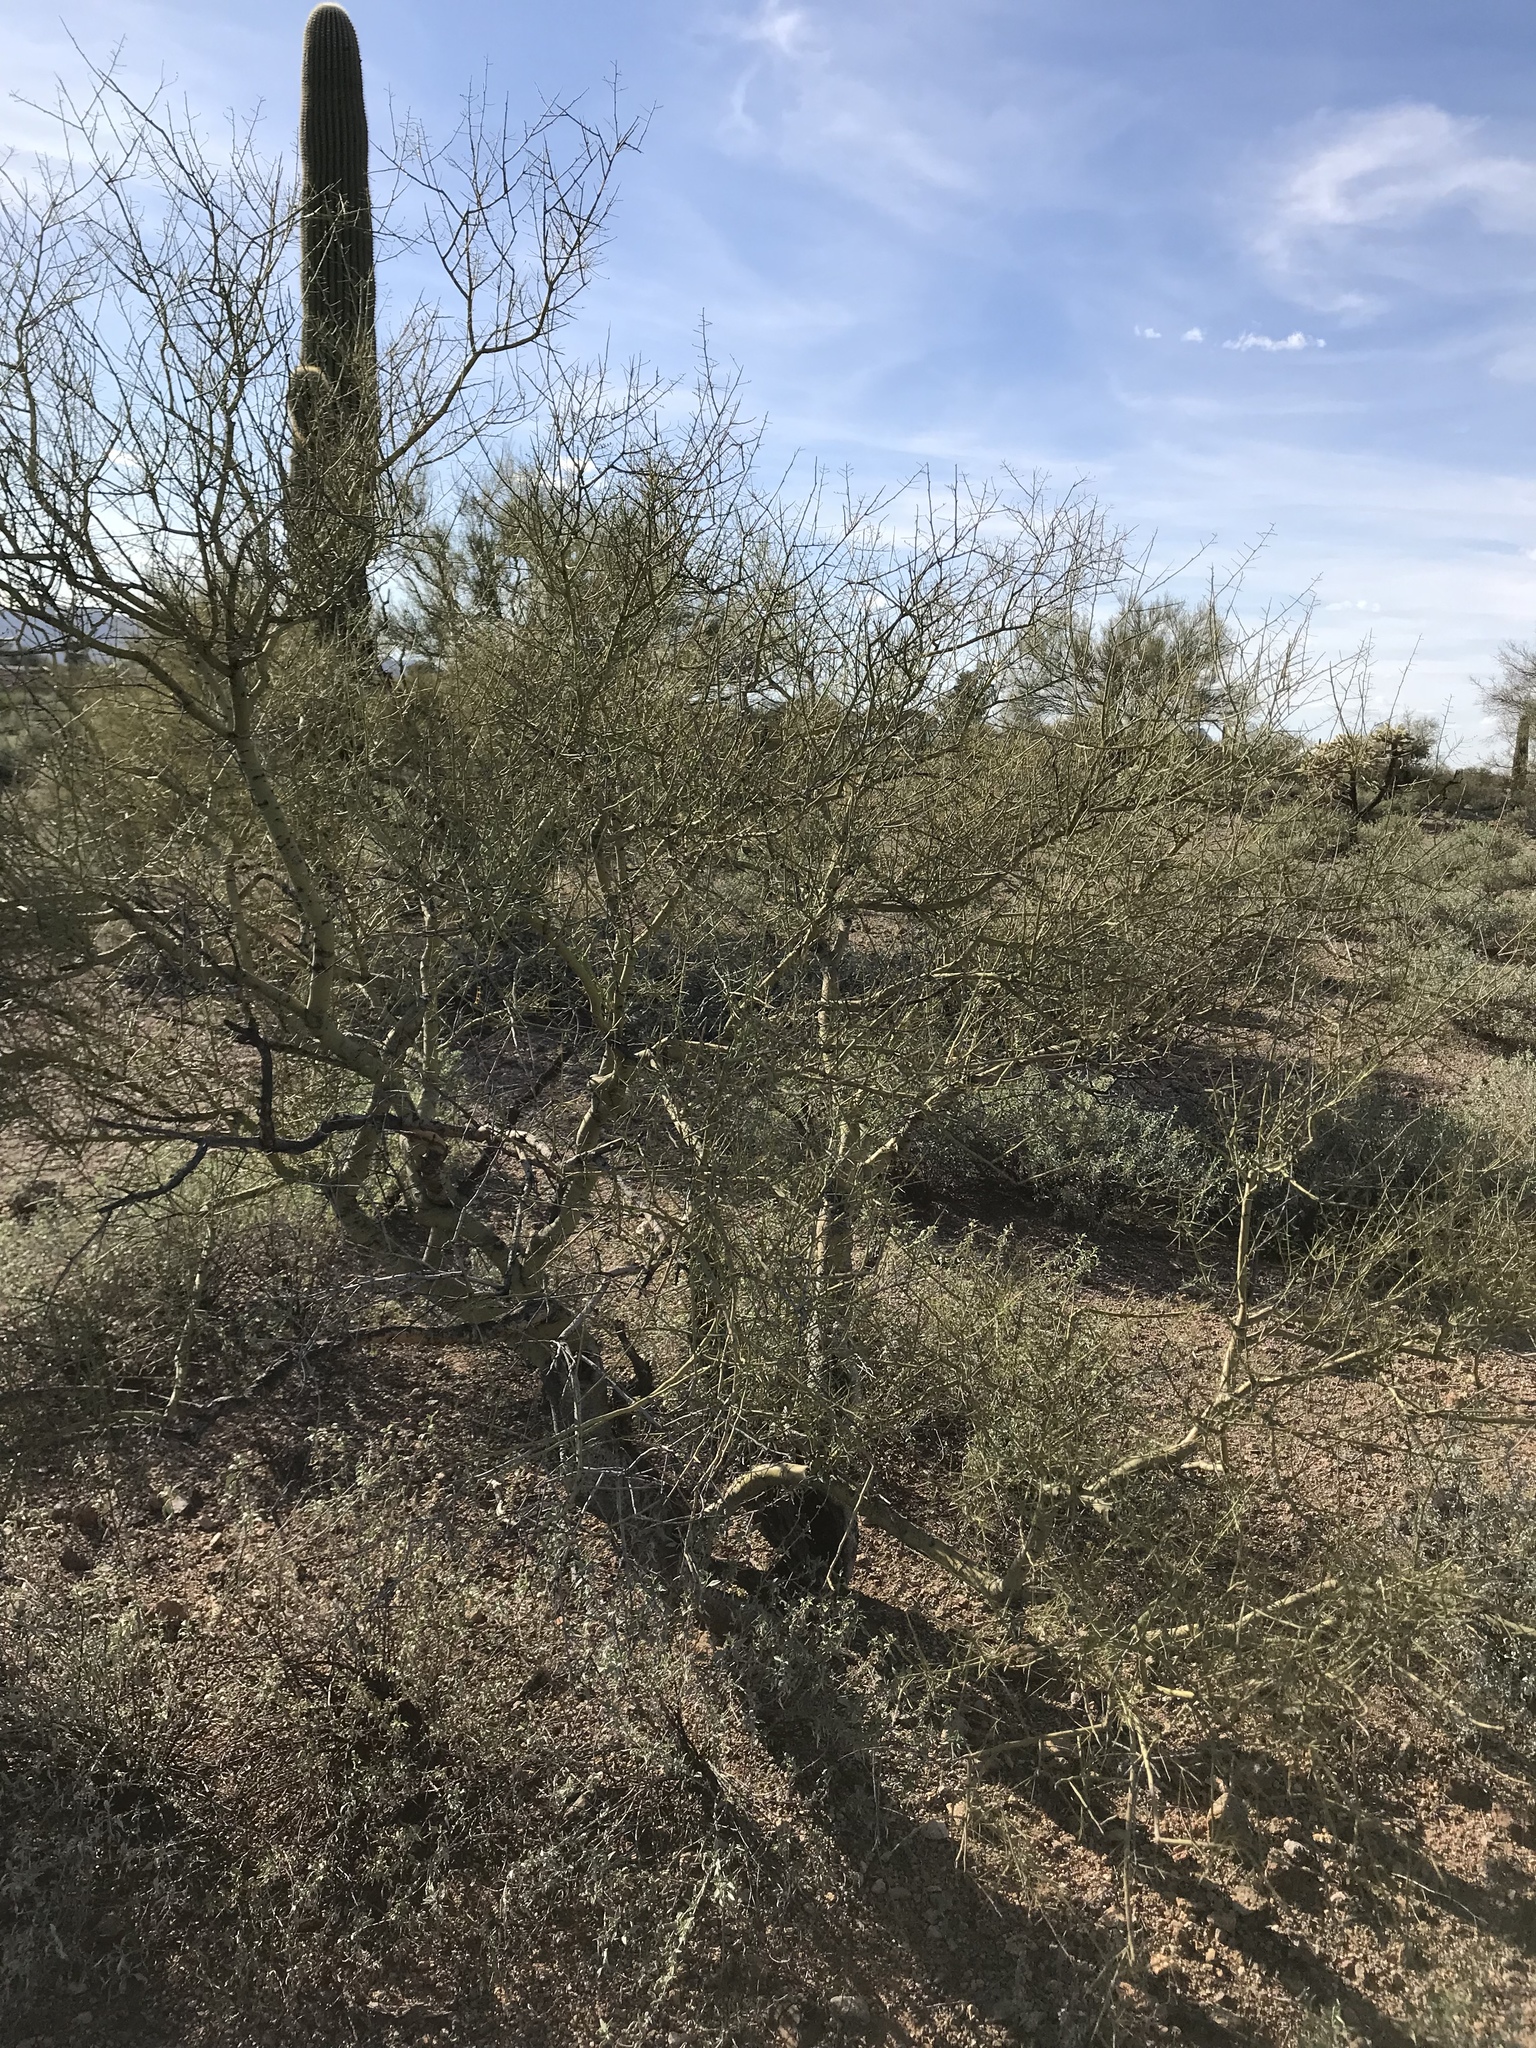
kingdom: Plantae
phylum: Tracheophyta
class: Magnoliopsida
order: Fabales
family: Fabaceae
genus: Parkinsonia
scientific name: Parkinsonia microphylla
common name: Yellow paloverde
